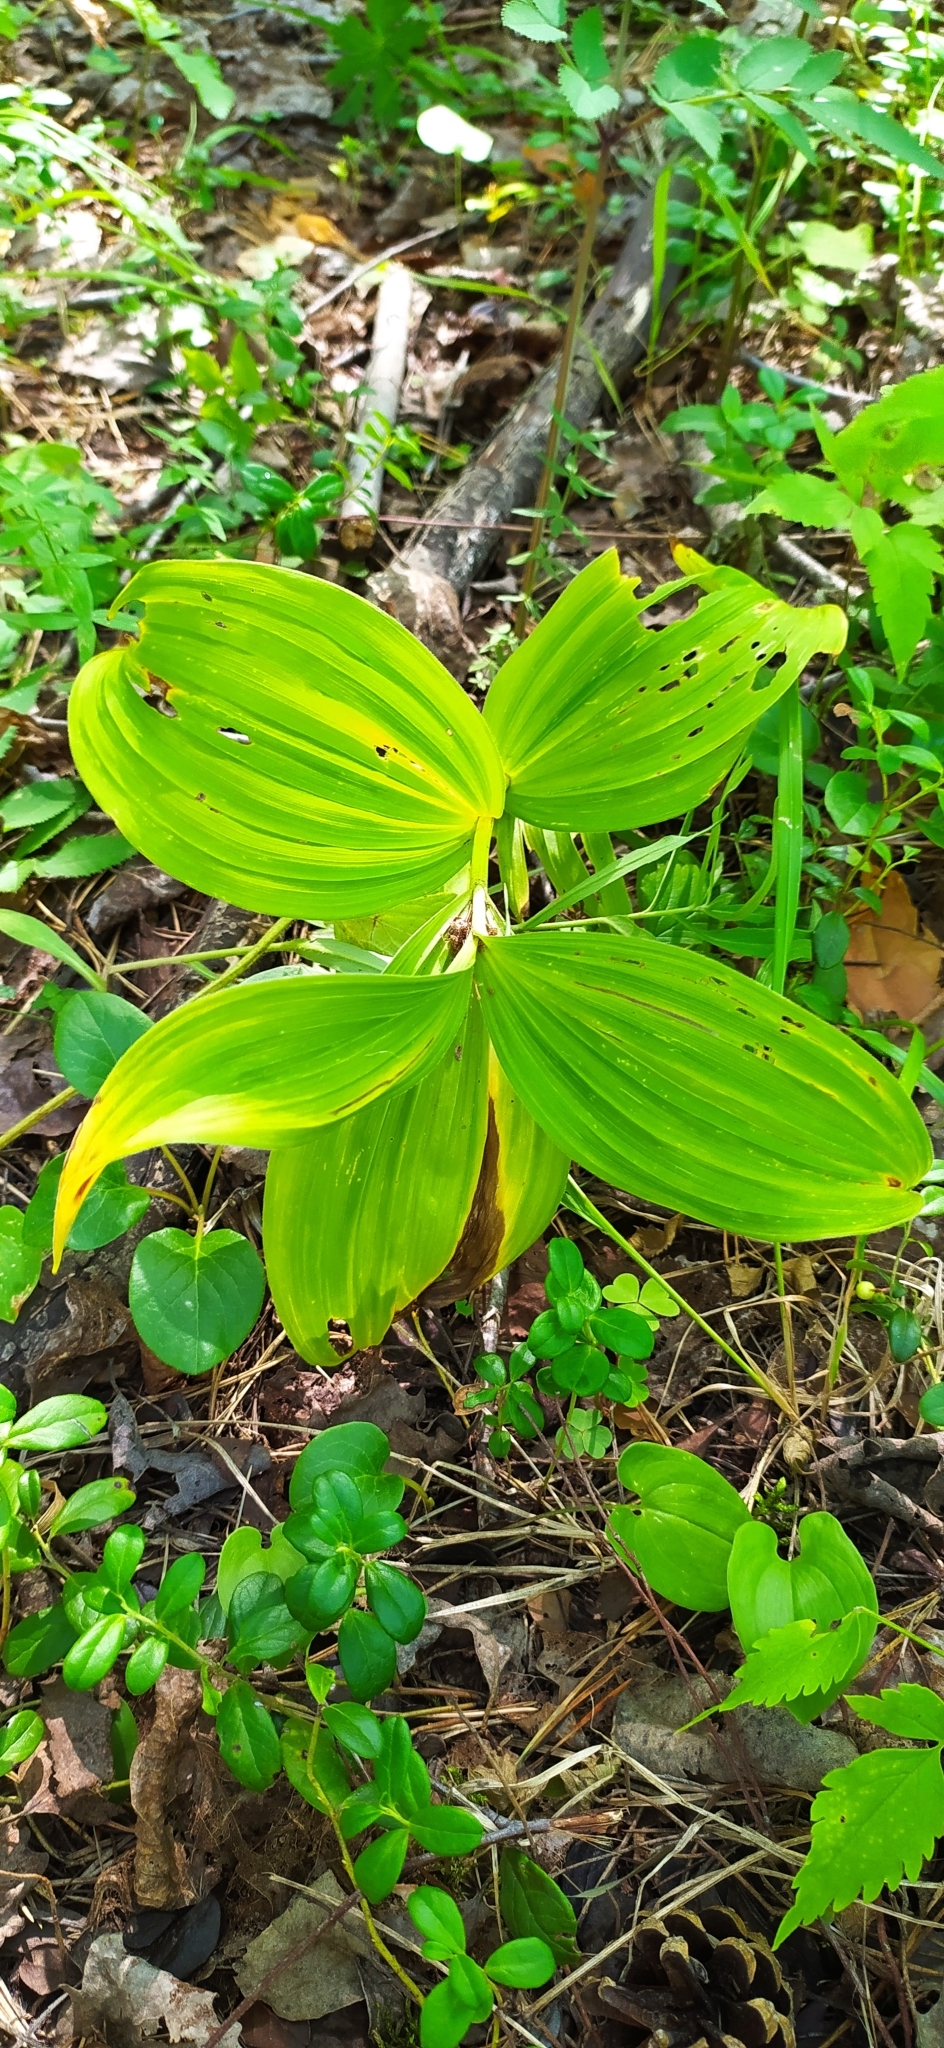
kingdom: Plantae
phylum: Tracheophyta
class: Liliopsida
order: Liliales
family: Melanthiaceae
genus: Veratrum
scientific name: Veratrum lobelianum
